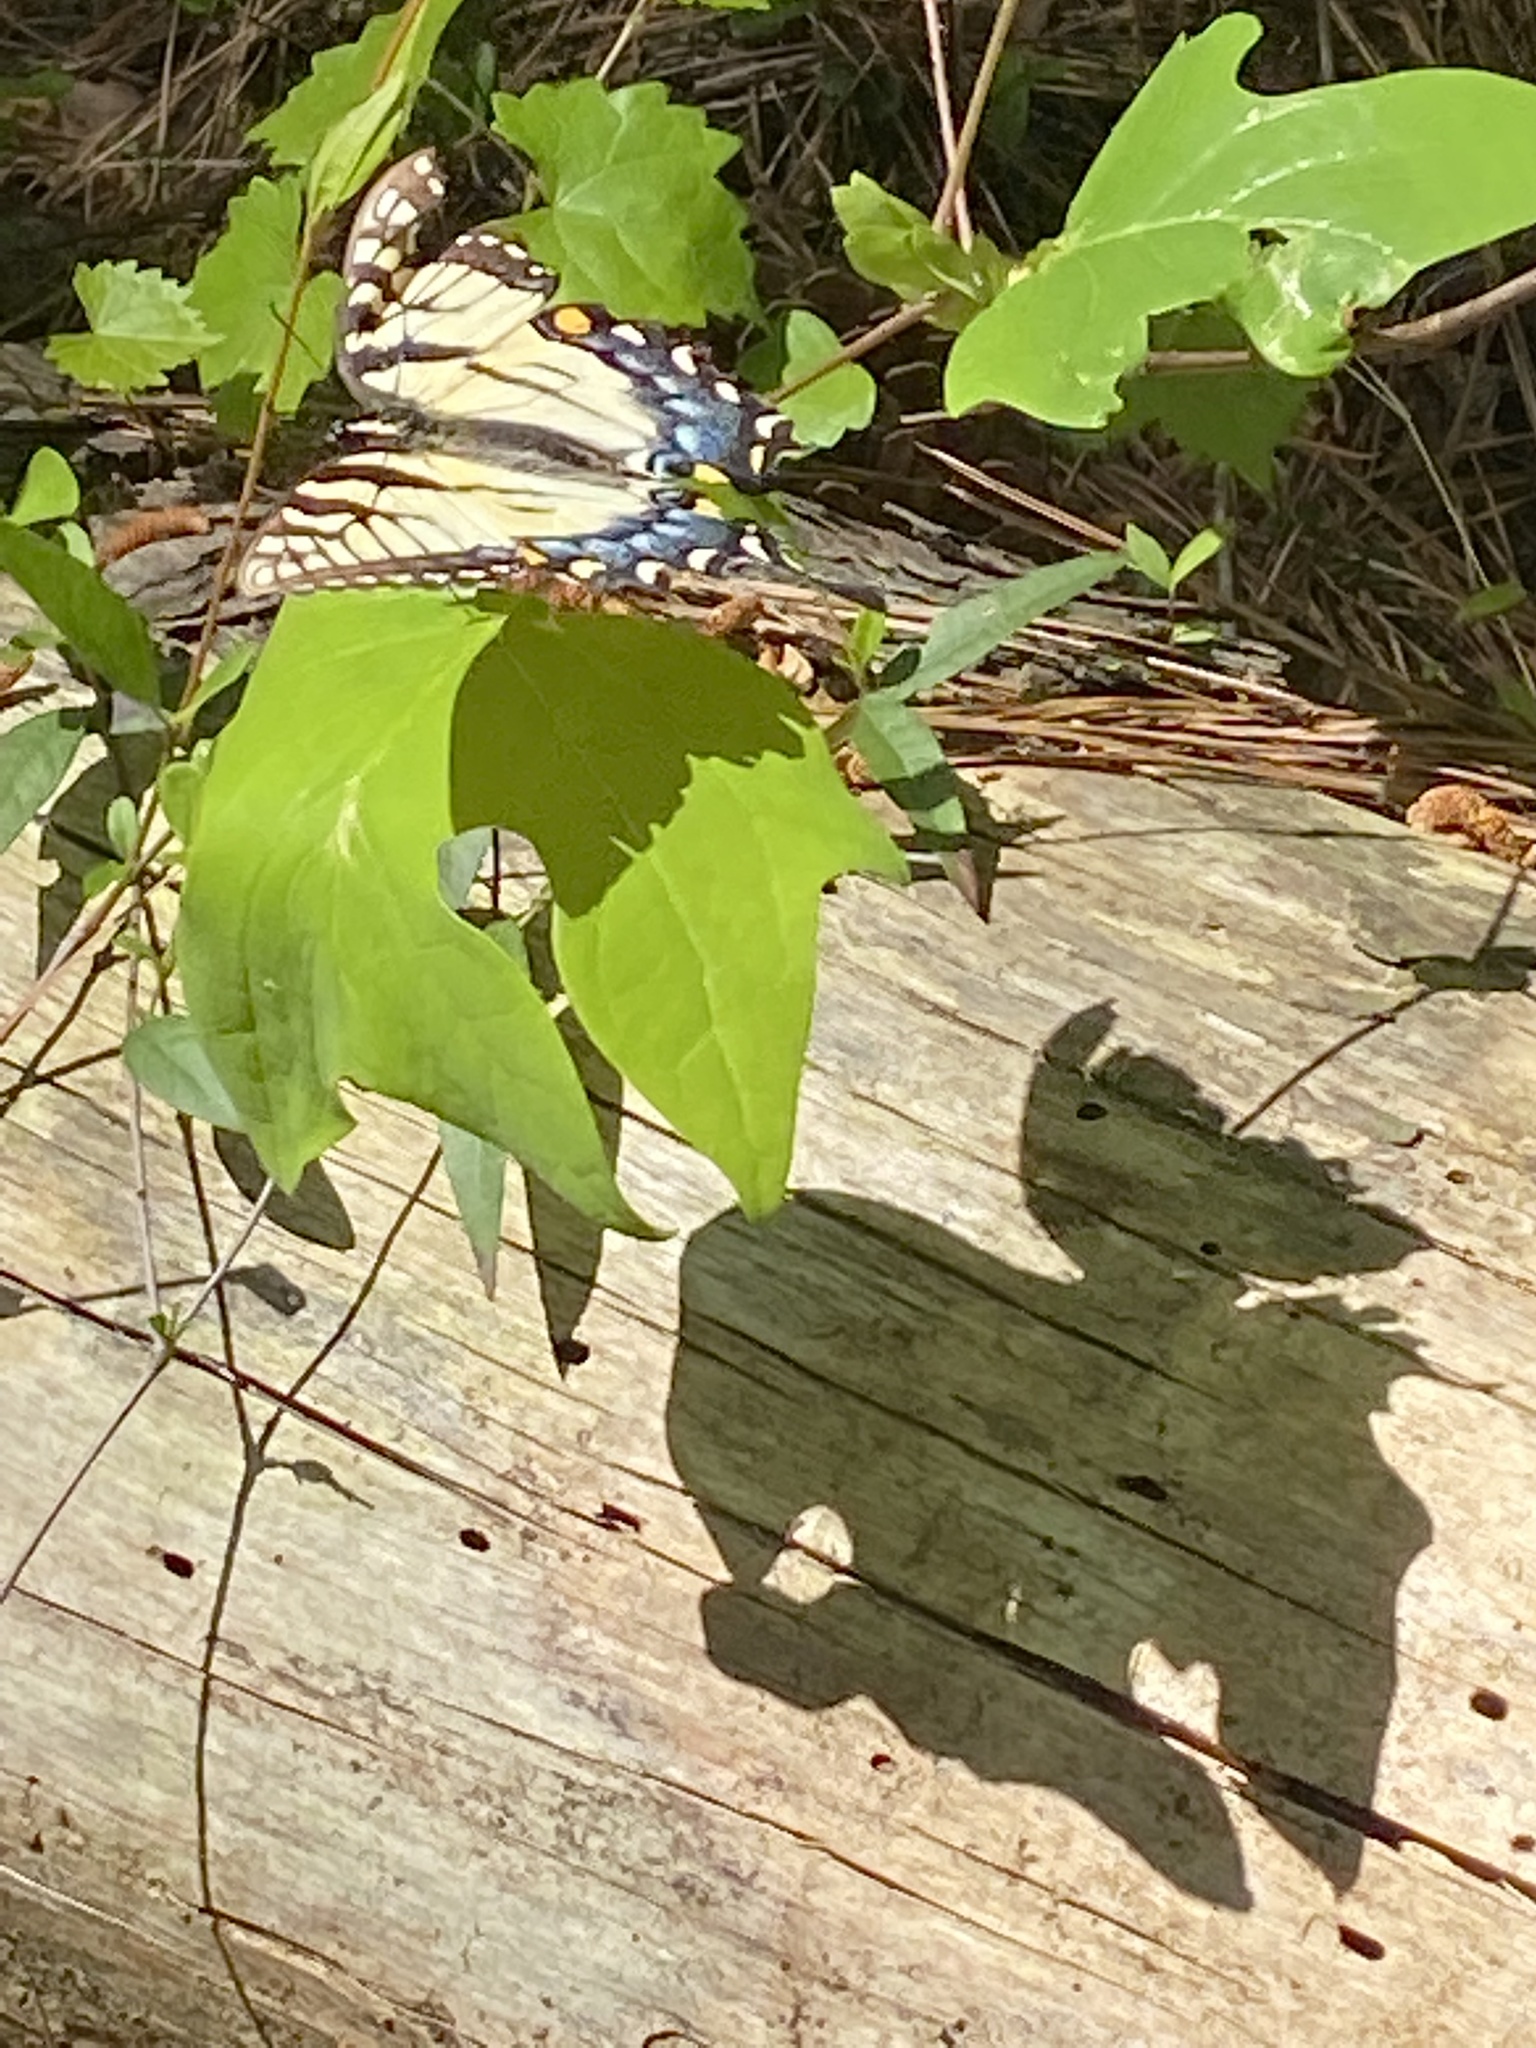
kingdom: Animalia
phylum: Arthropoda
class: Insecta
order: Lepidoptera
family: Papilionidae
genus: Papilio
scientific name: Papilio glaucus
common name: Tiger swallowtail
